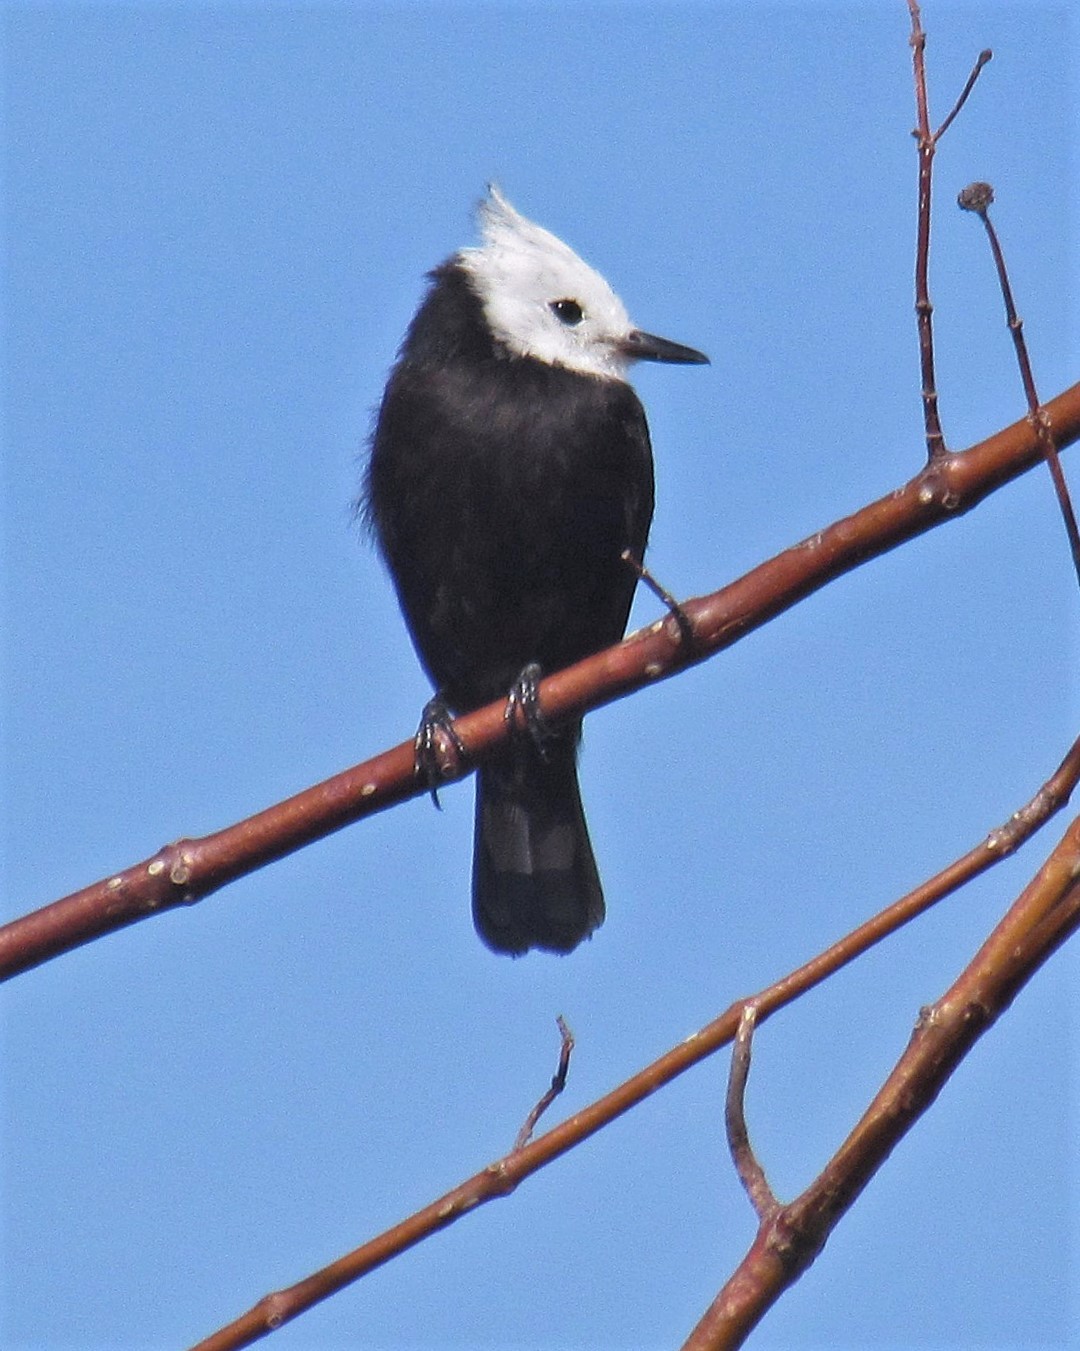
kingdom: Animalia
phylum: Chordata
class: Aves
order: Passeriformes
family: Tyrannidae
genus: Arundinicola
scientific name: Arundinicola leucocephala
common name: White-headed marsh tyrant
